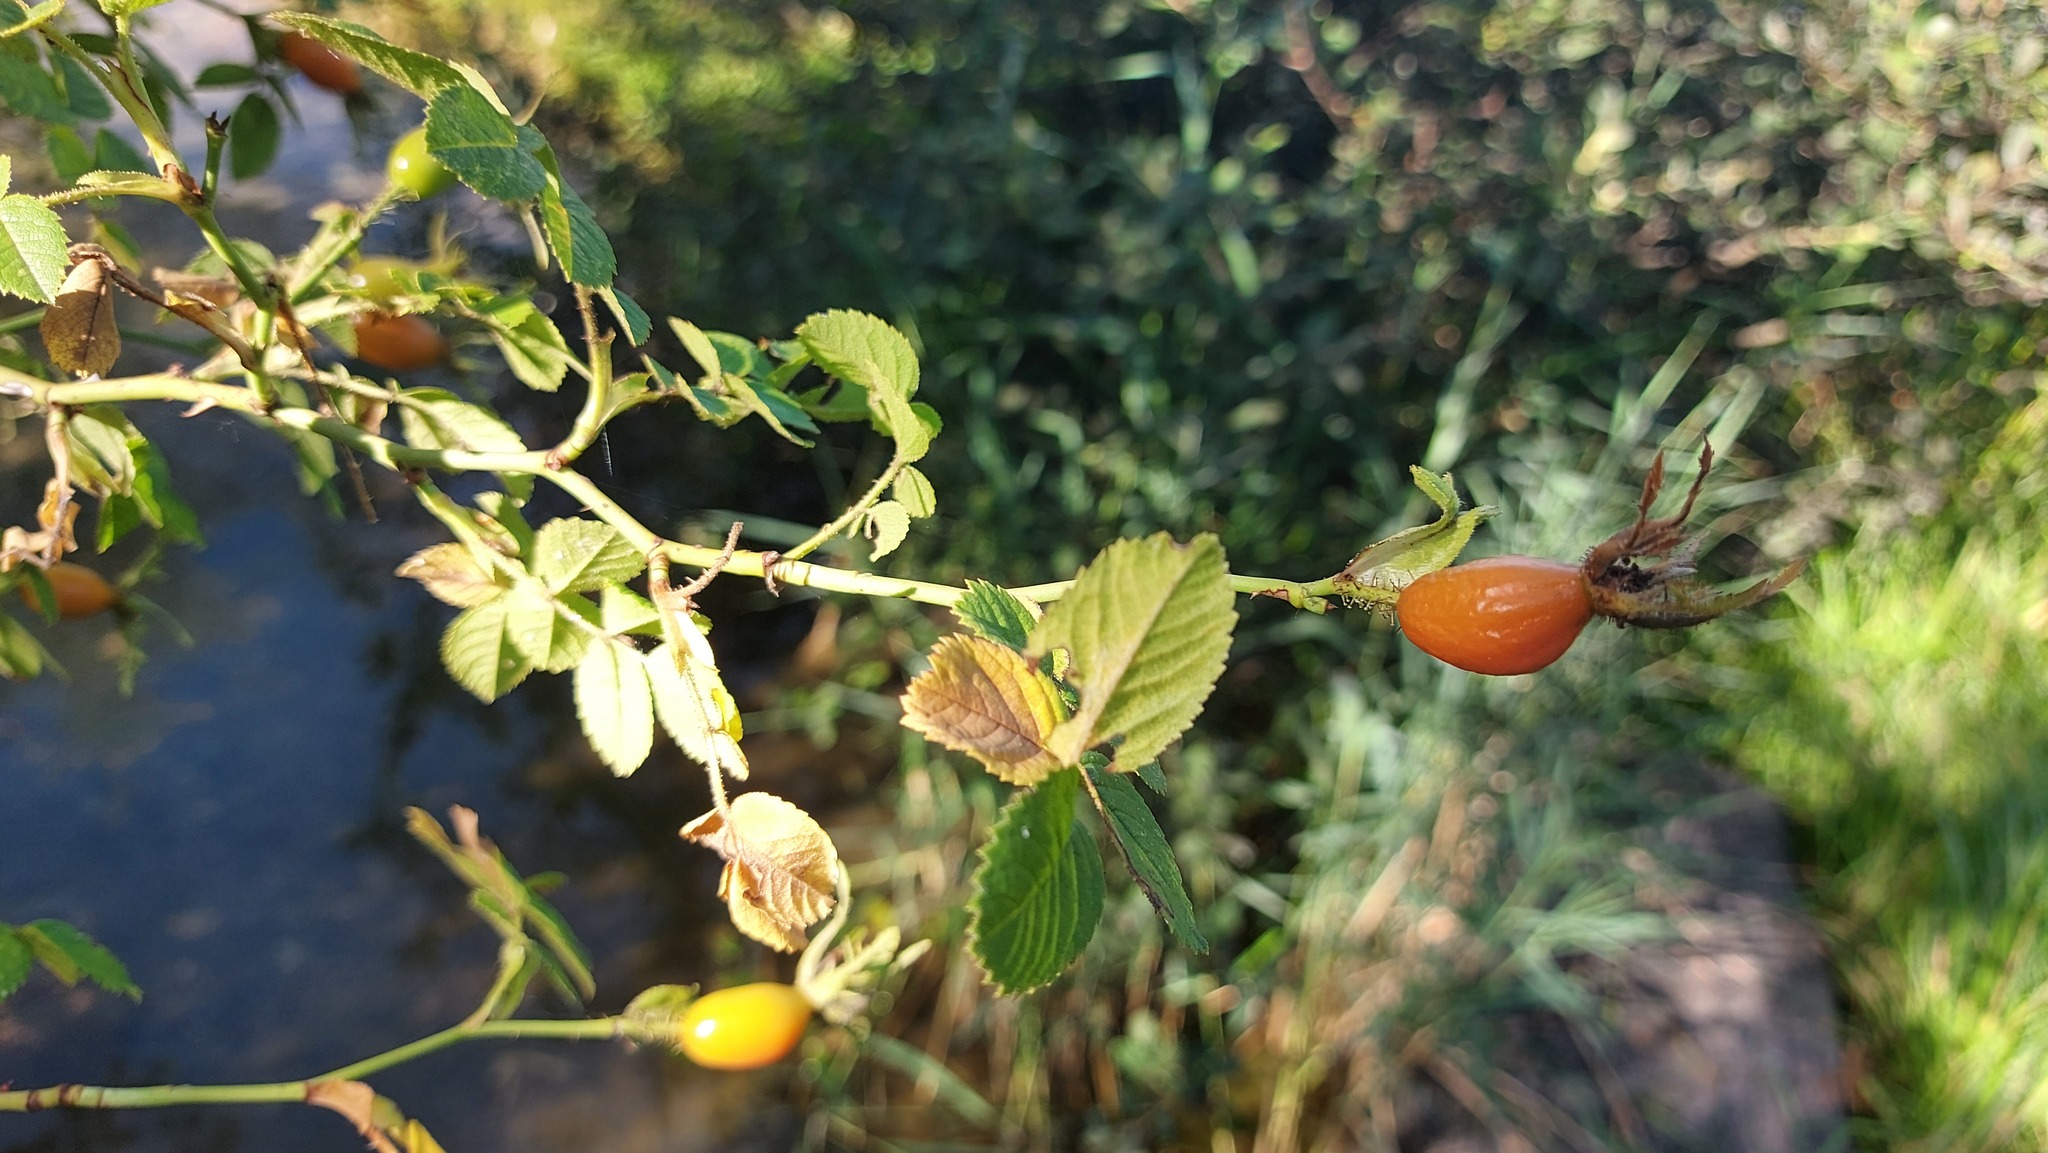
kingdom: Plantae
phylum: Tracheophyta
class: Magnoliopsida
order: Rosales
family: Rosaceae
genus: Rosa
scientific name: Rosa rubiginosa
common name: Sweet-briar
